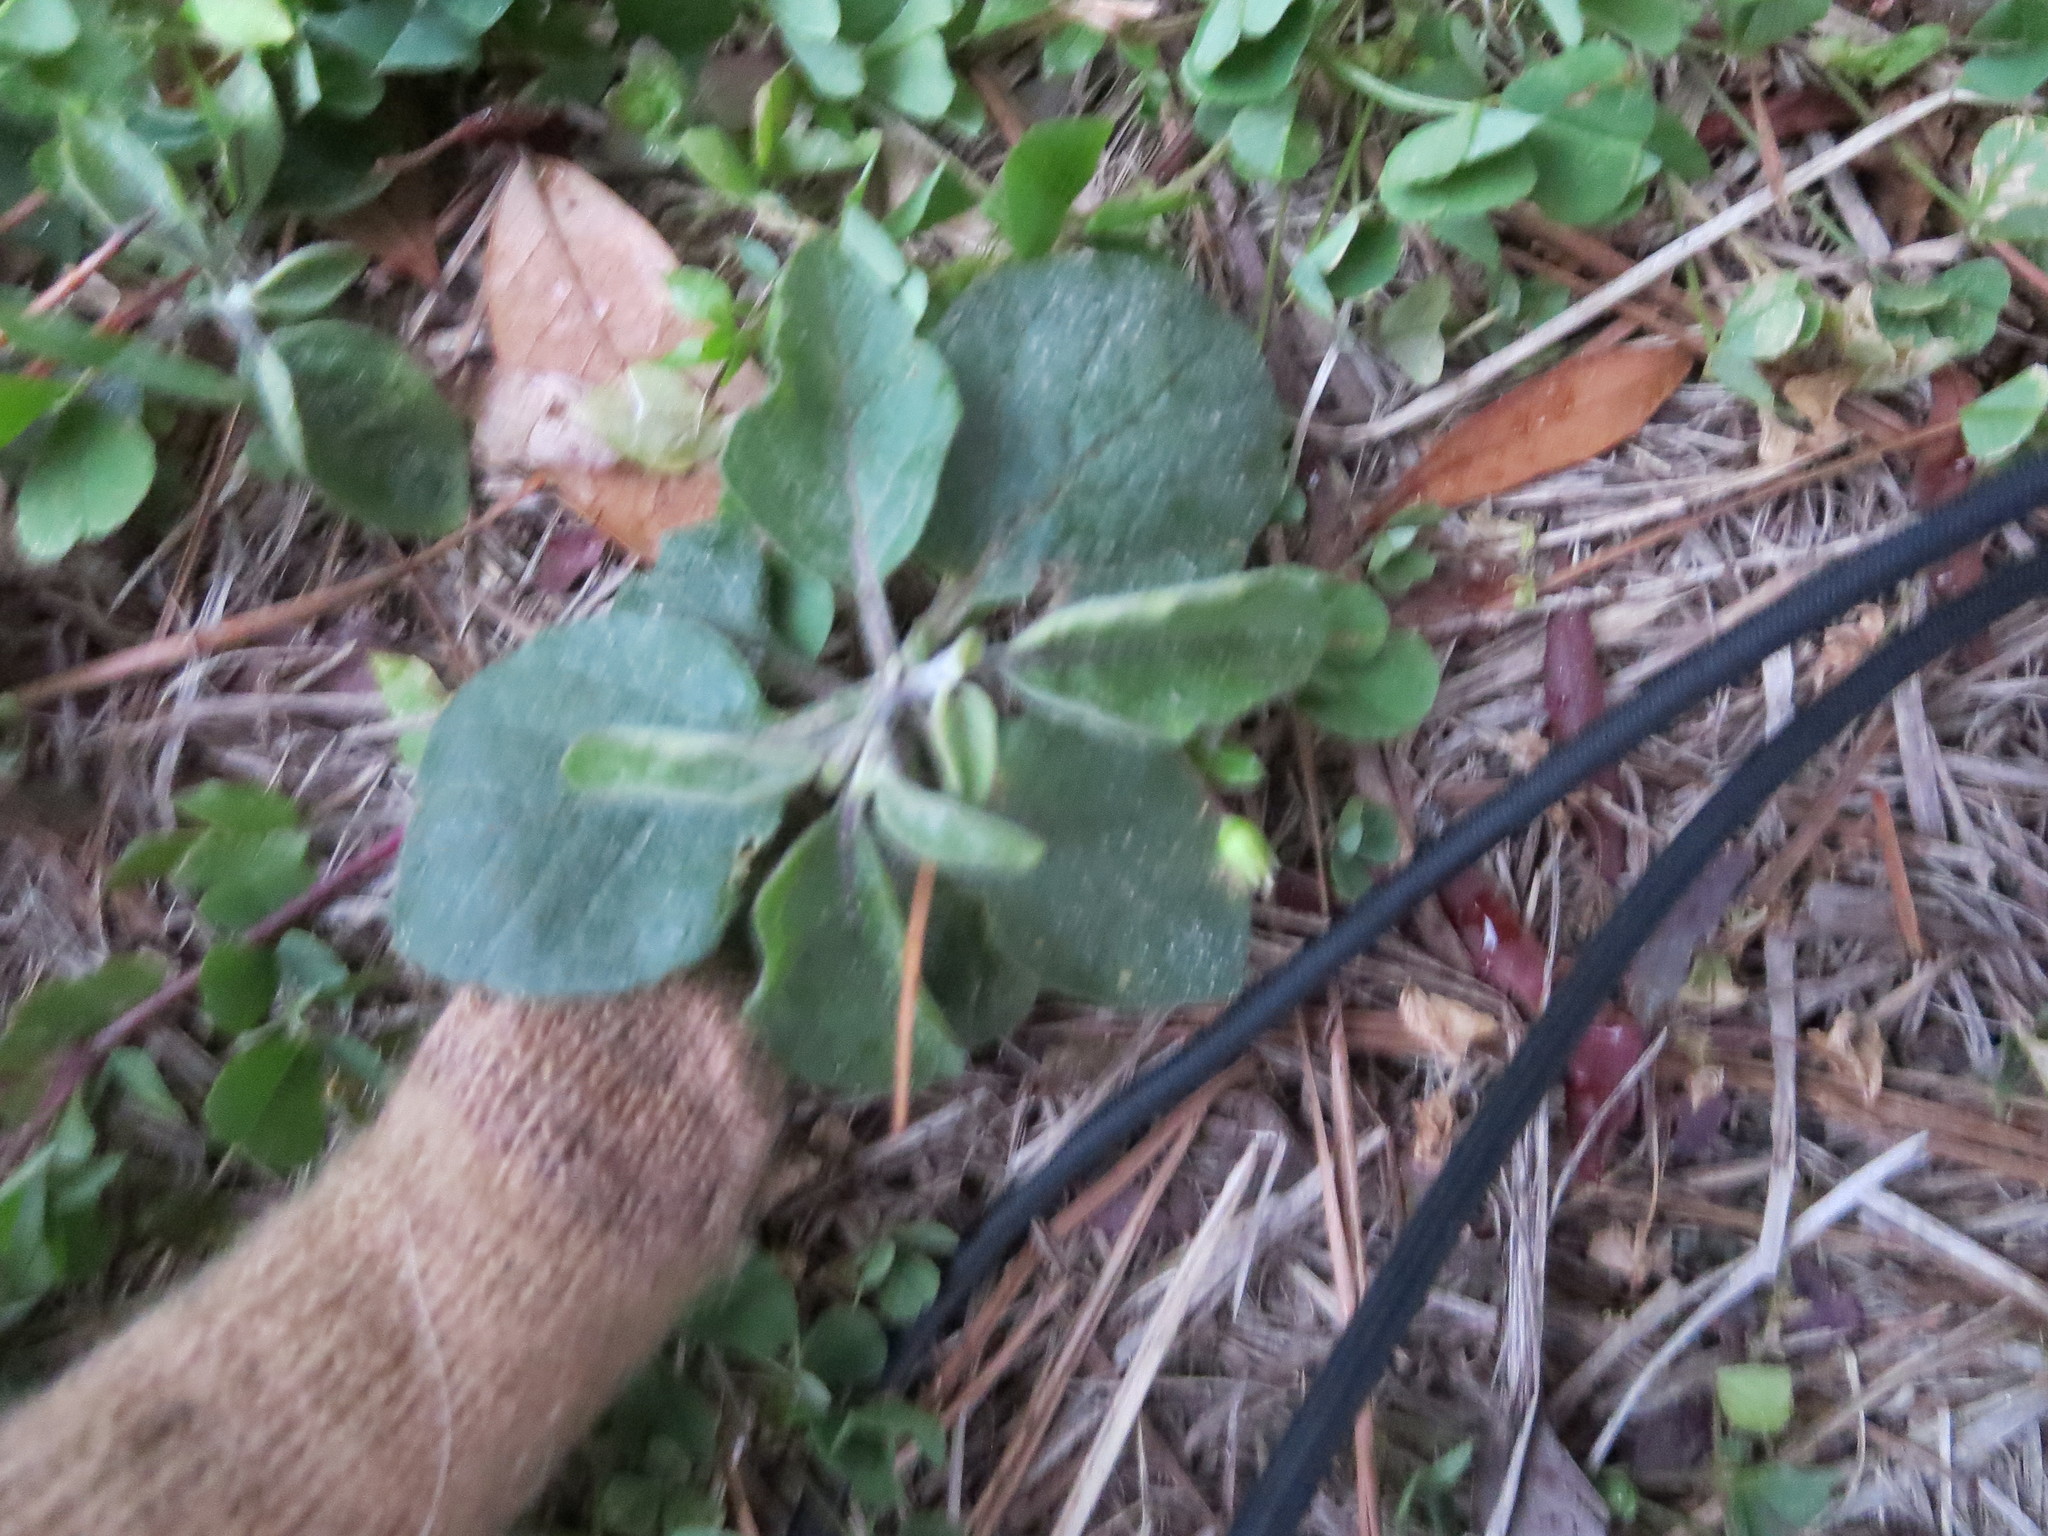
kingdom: Plantae
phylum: Tracheophyta
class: Magnoliopsida
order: Solanales
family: Solanaceae
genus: Physalis
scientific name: Physalis walteri
